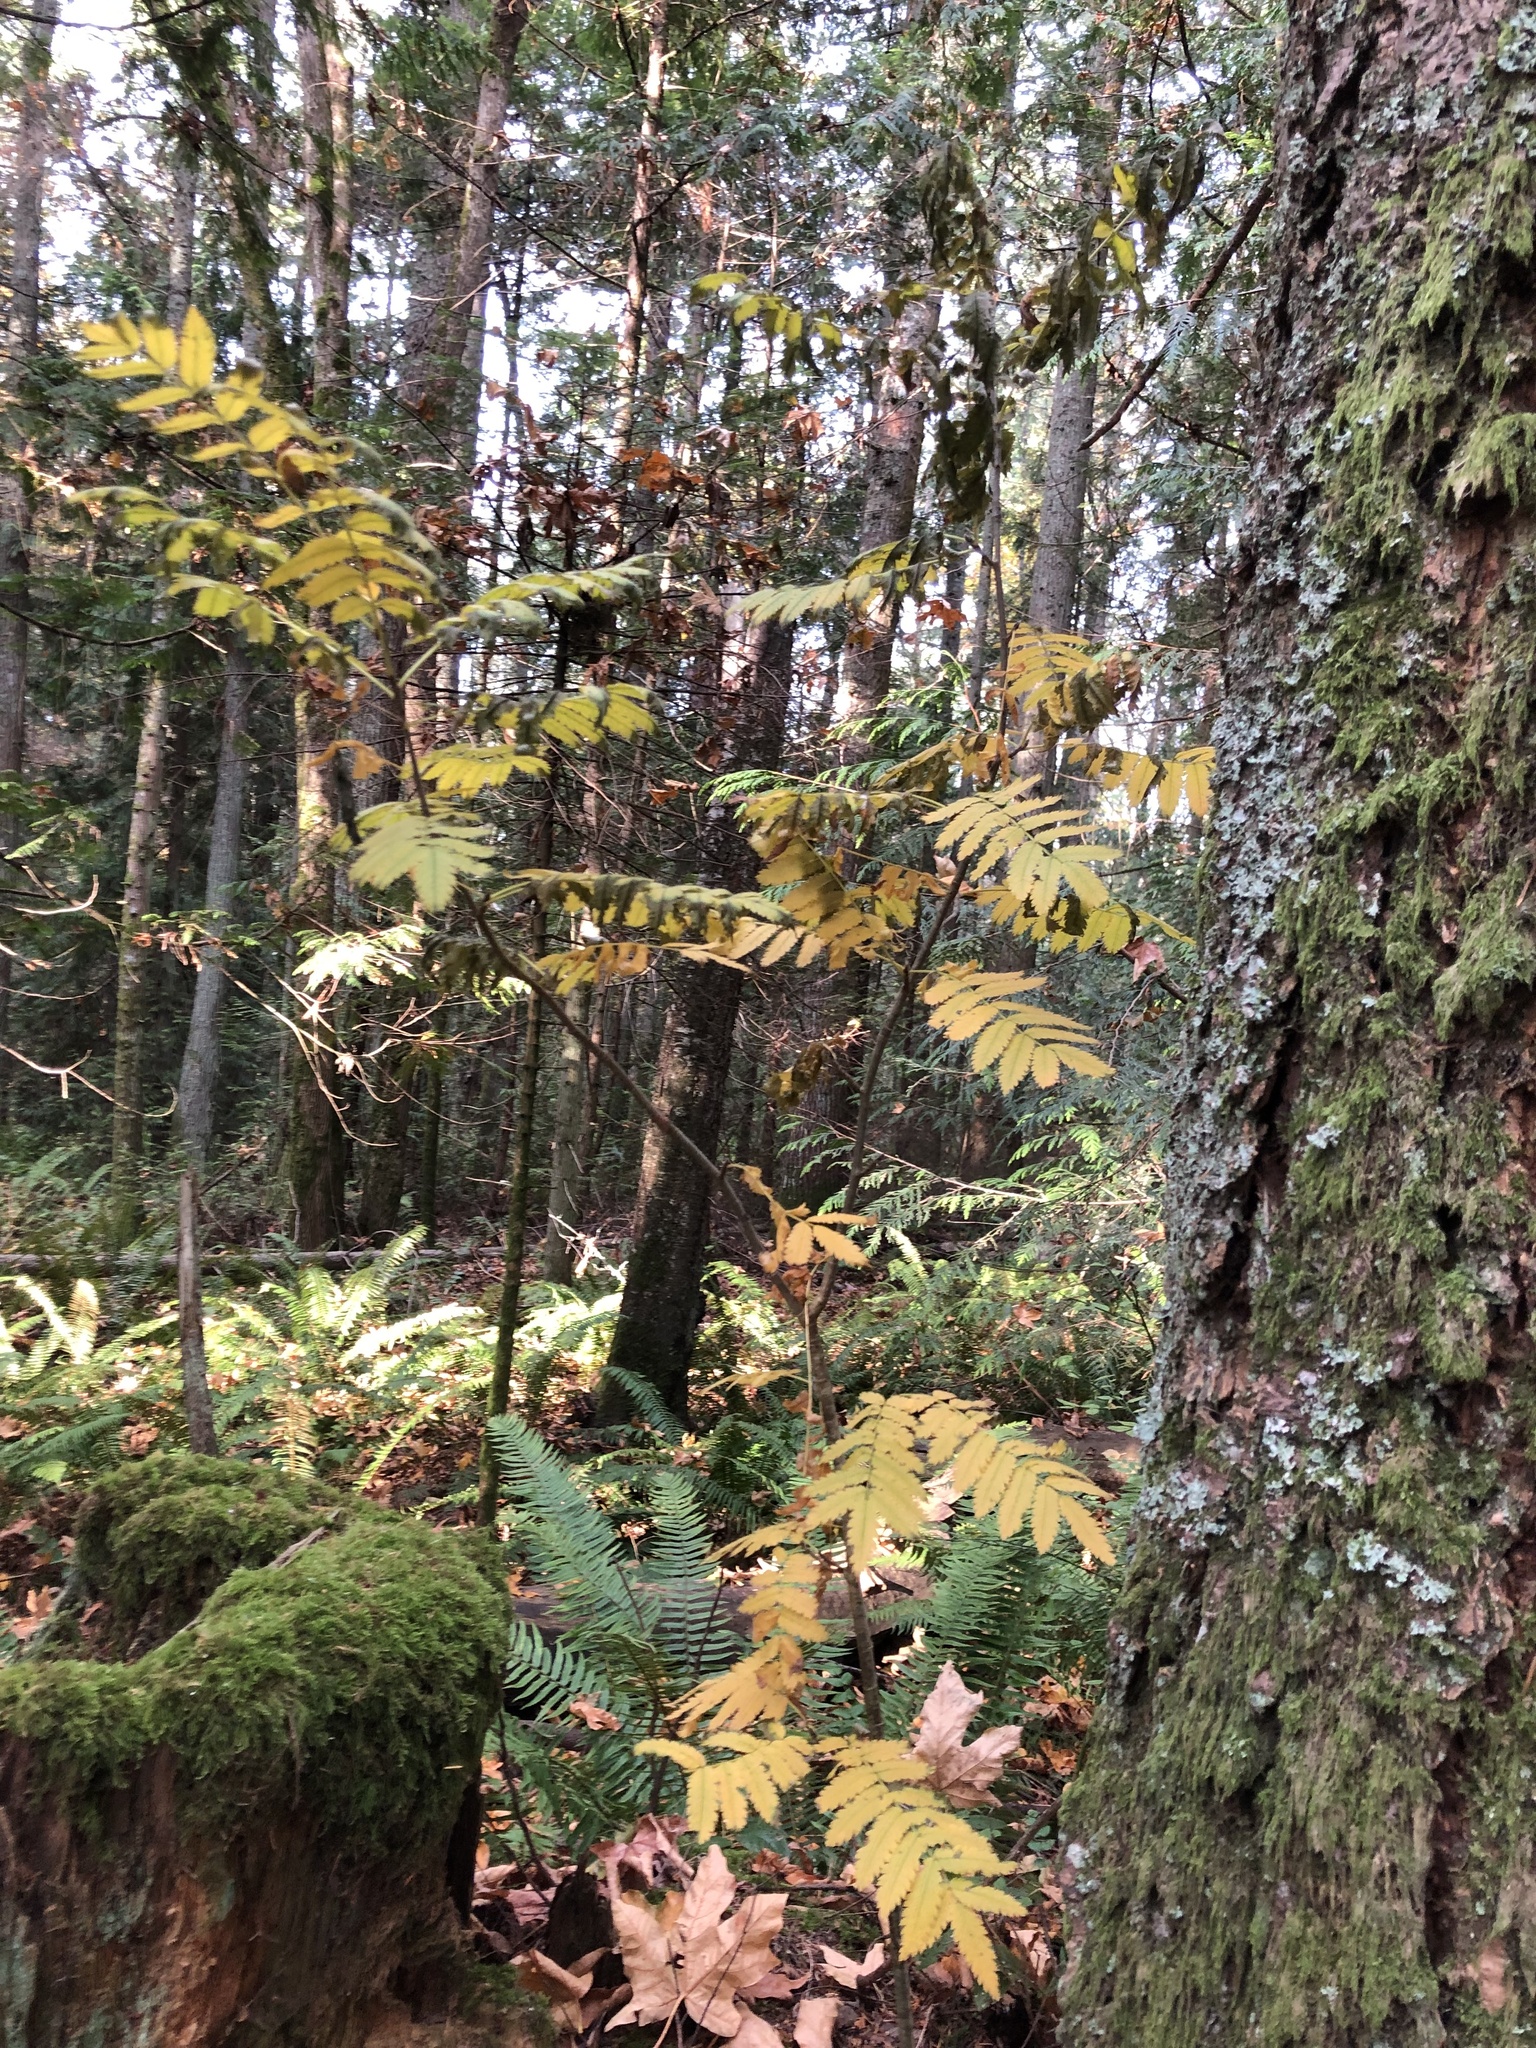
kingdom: Plantae
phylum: Tracheophyta
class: Magnoliopsida
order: Rosales
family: Rosaceae
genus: Sorbus
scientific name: Sorbus aucuparia
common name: Rowan
